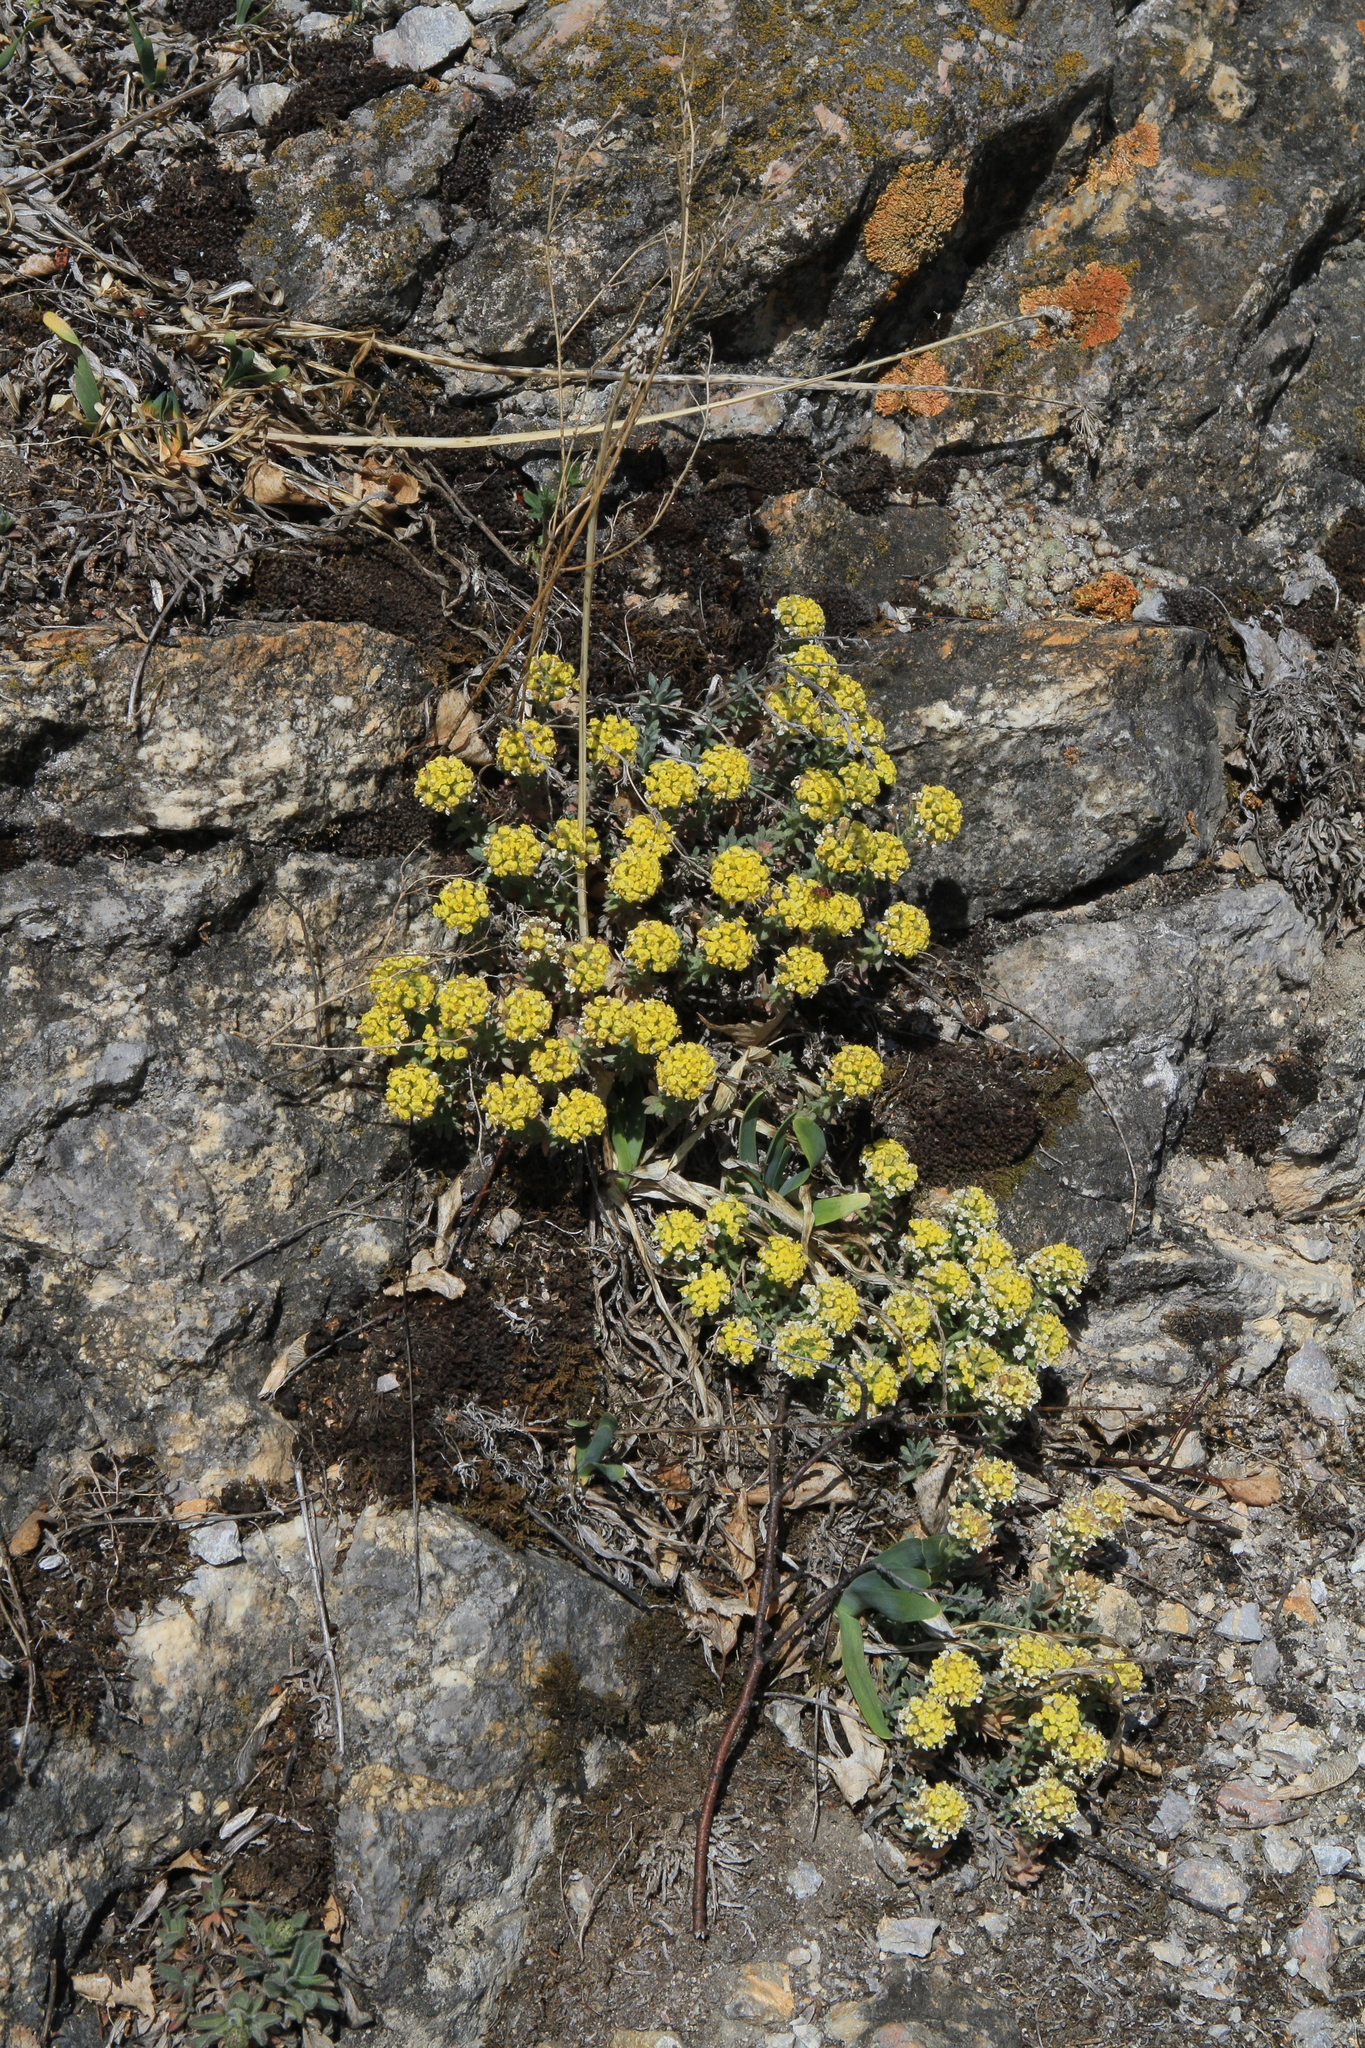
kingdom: Plantae
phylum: Tracheophyta
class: Magnoliopsida
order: Brassicales
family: Brassicaceae
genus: Alyssum
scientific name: Alyssum lenense
